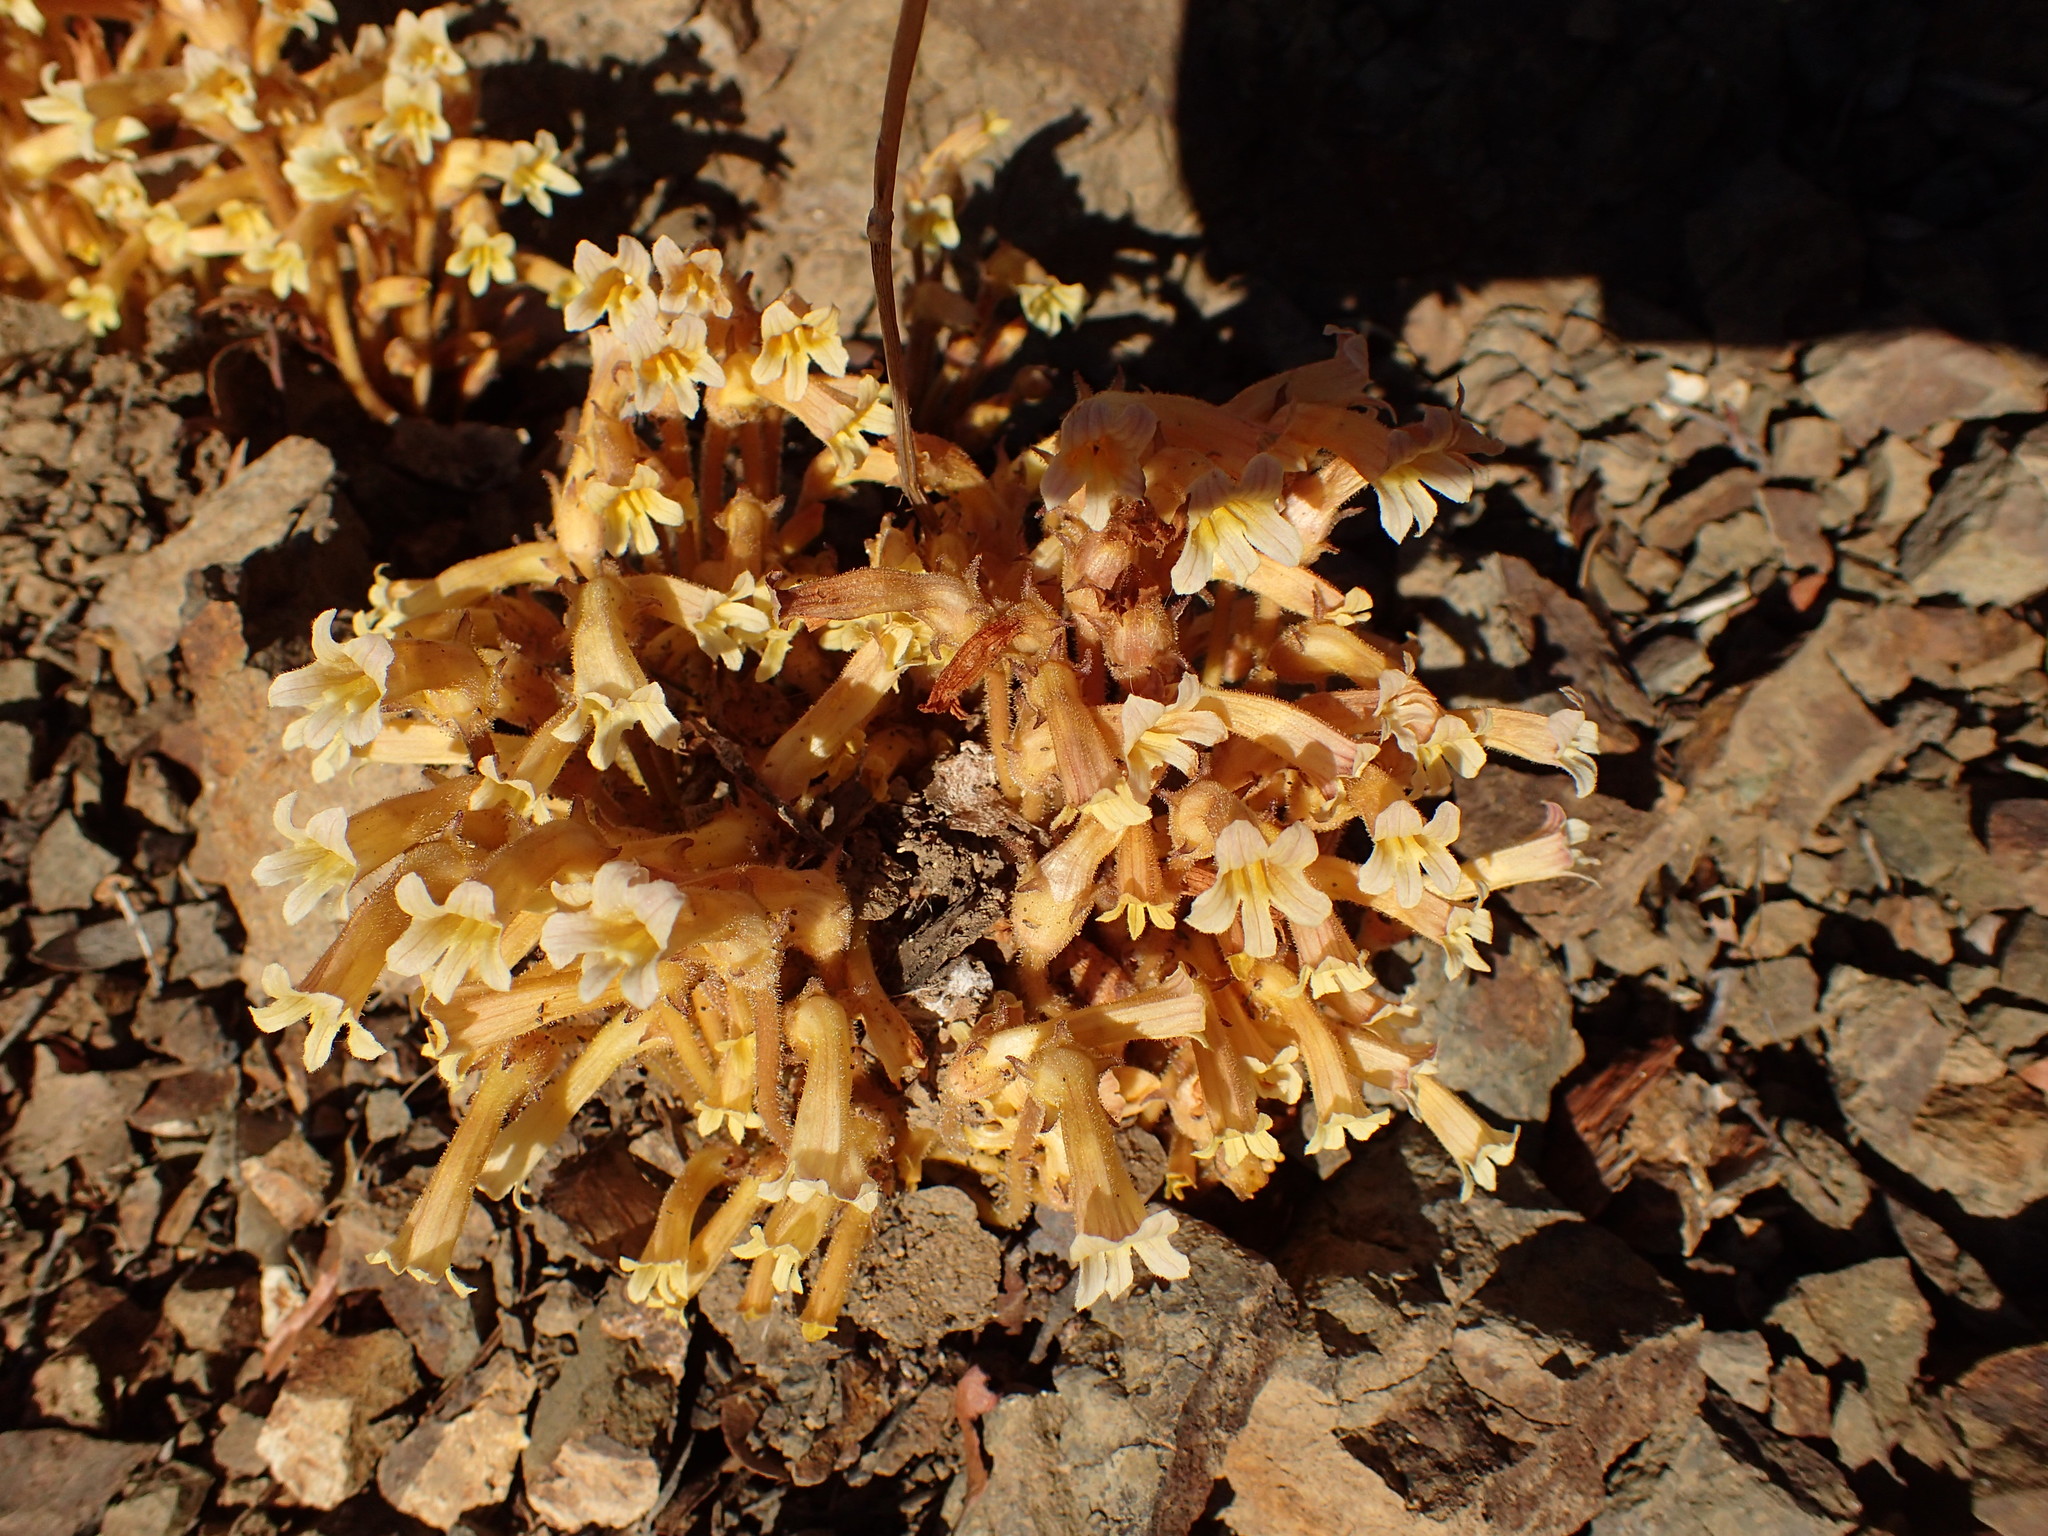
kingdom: Plantae
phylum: Tracheophyta
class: Magnoliopsida
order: Lamiales
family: Orobanchaceae
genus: Aphyllon
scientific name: Aphyllon franciscanum
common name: San francisco broomrape
